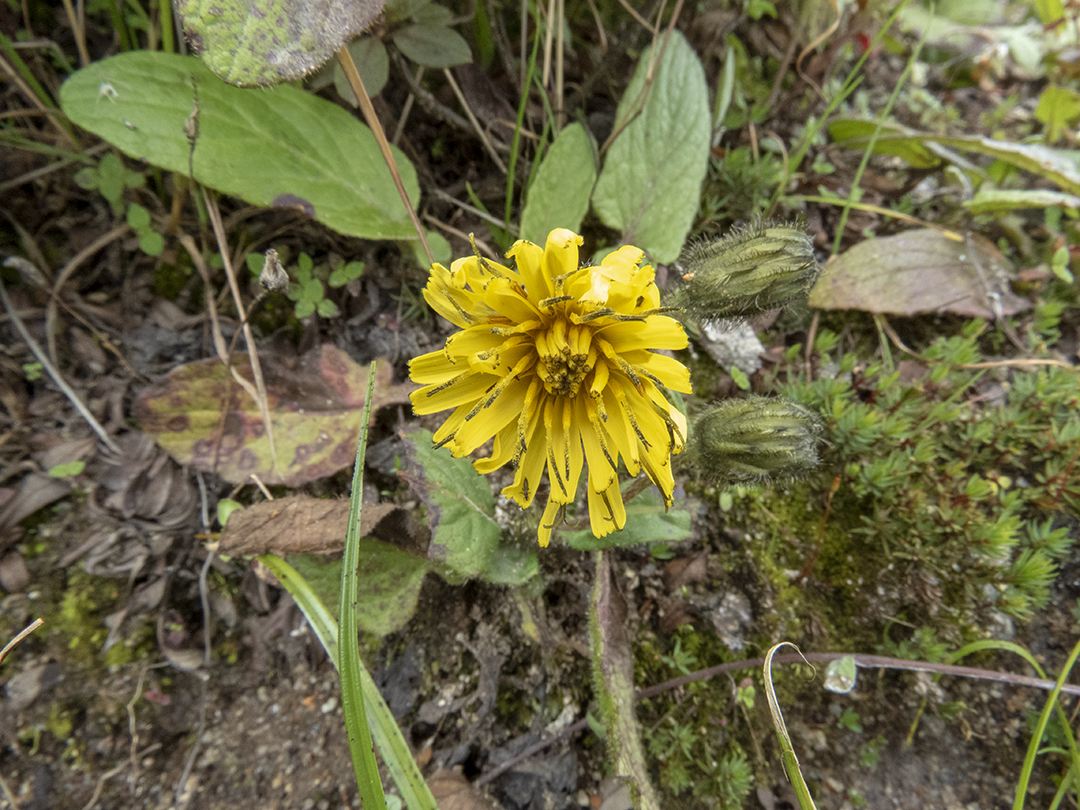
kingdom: Plantae
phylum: Tracheophyta
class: Magnoliopsida
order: Asterales
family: Asteraceae
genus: Dubyaea
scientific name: Dubyaea hispida
